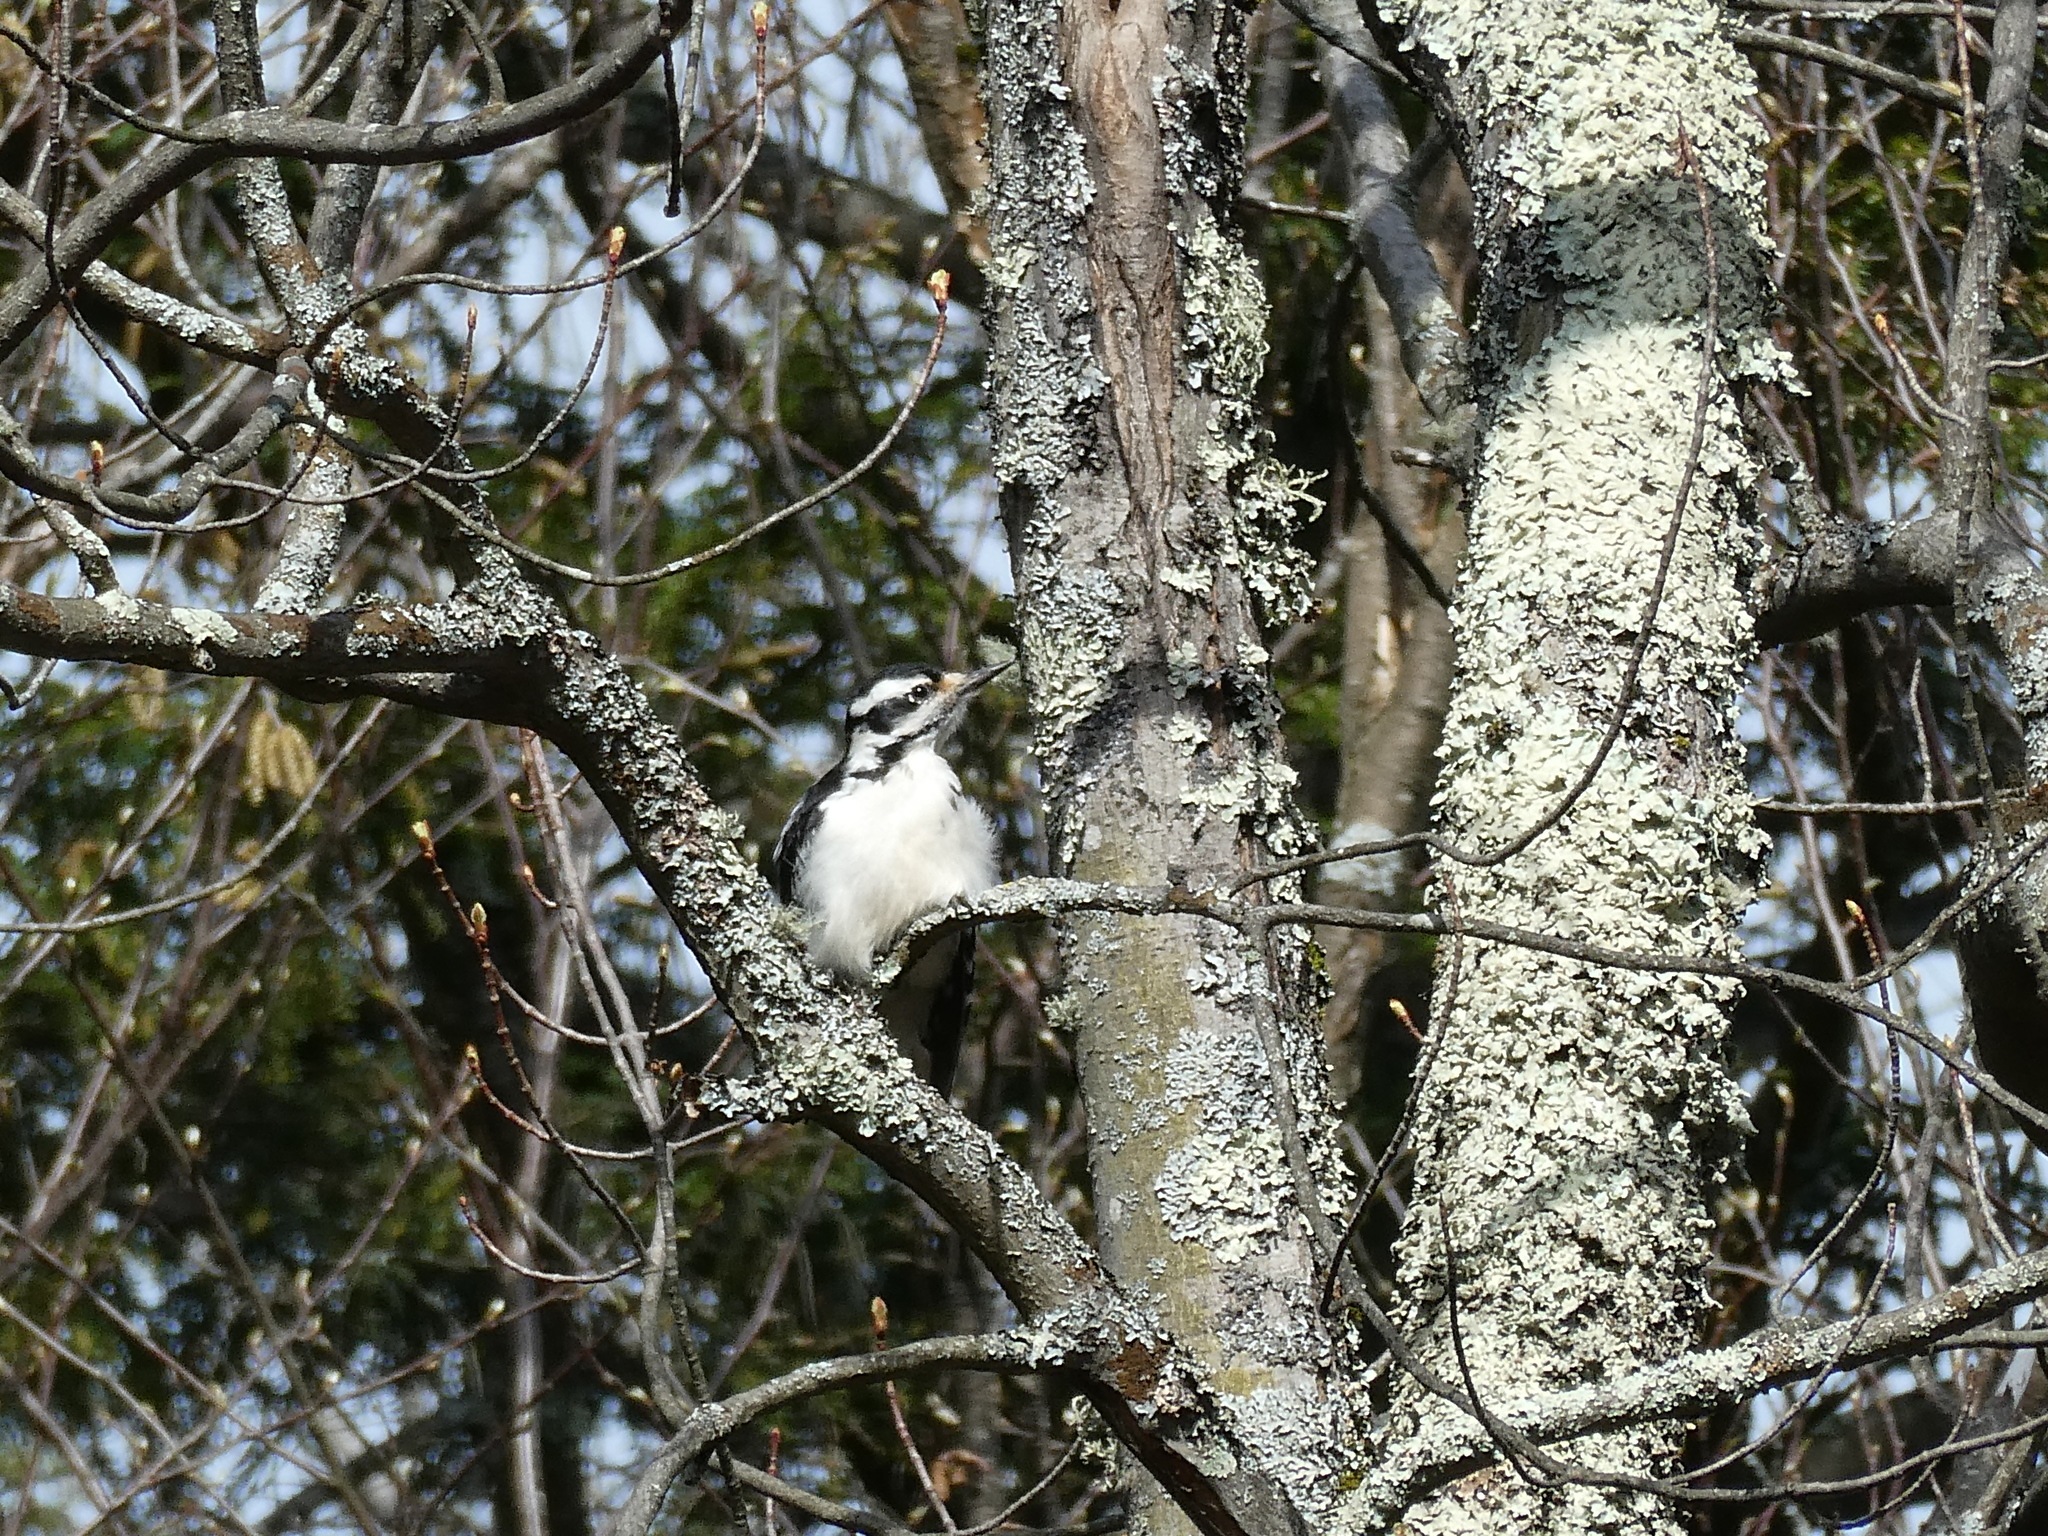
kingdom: Animalia
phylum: Chordata
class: Aves
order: Piciformes
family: Picidae
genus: Leuconotopicus
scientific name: Leuconotopicus villosus
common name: Hairy woodpecker
